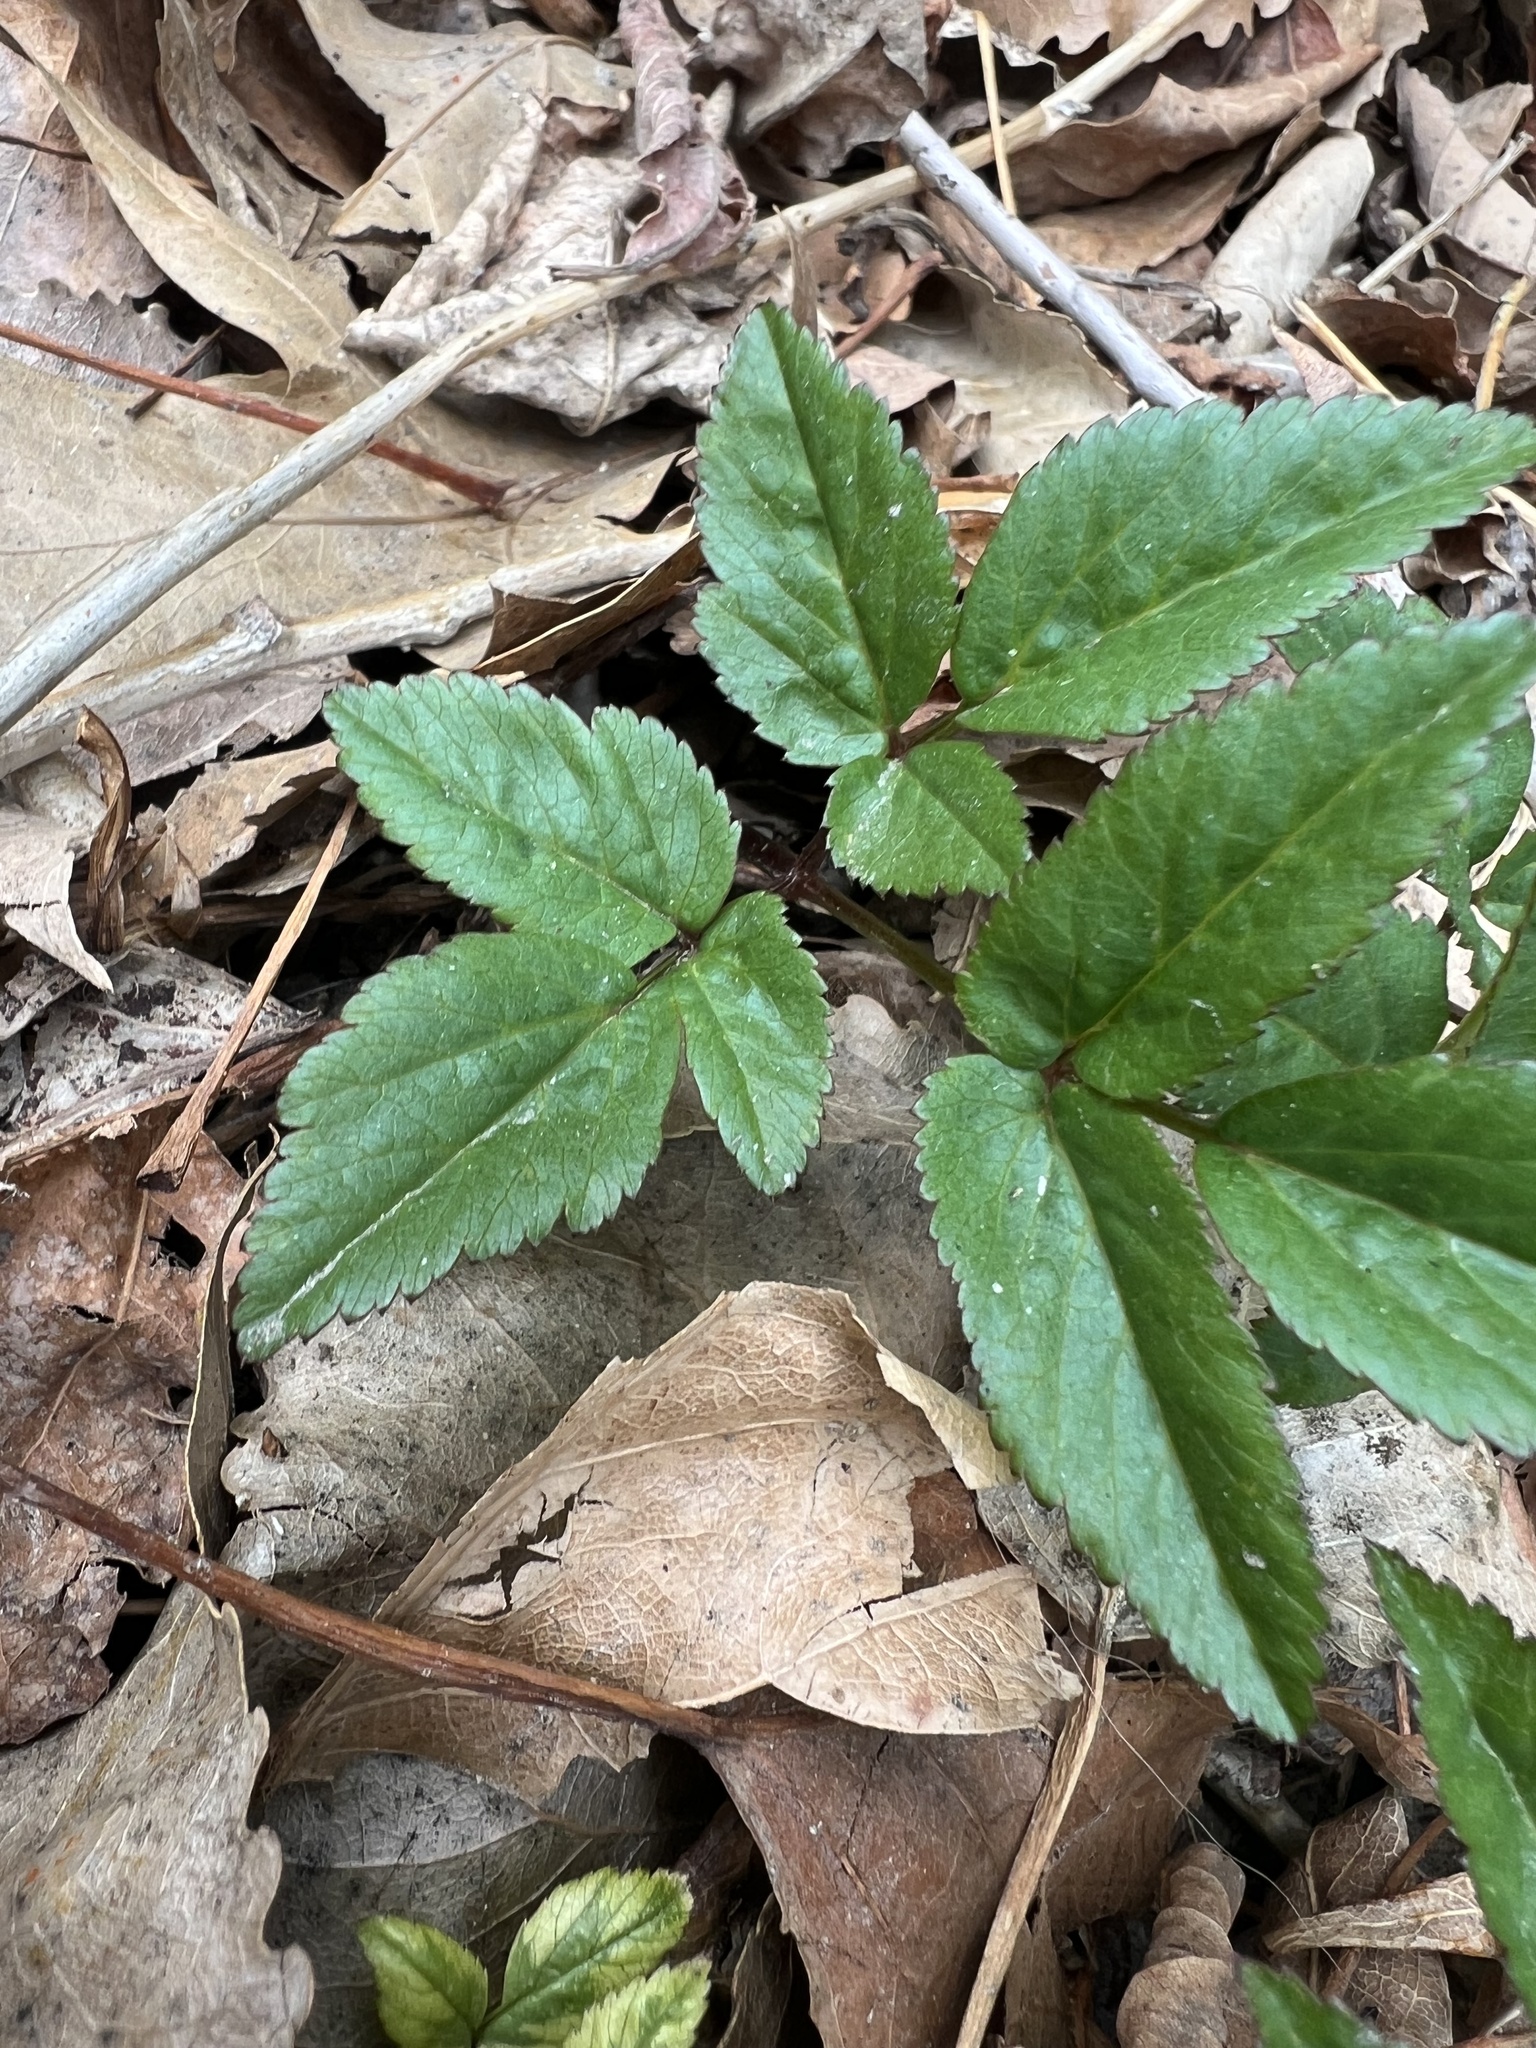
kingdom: Plantae
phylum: Tracheophyta
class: Magnoliopsida
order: Apiales
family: Apiaceae
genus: Aegopodium
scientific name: Aegopodium podagraria
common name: Ground-elder
